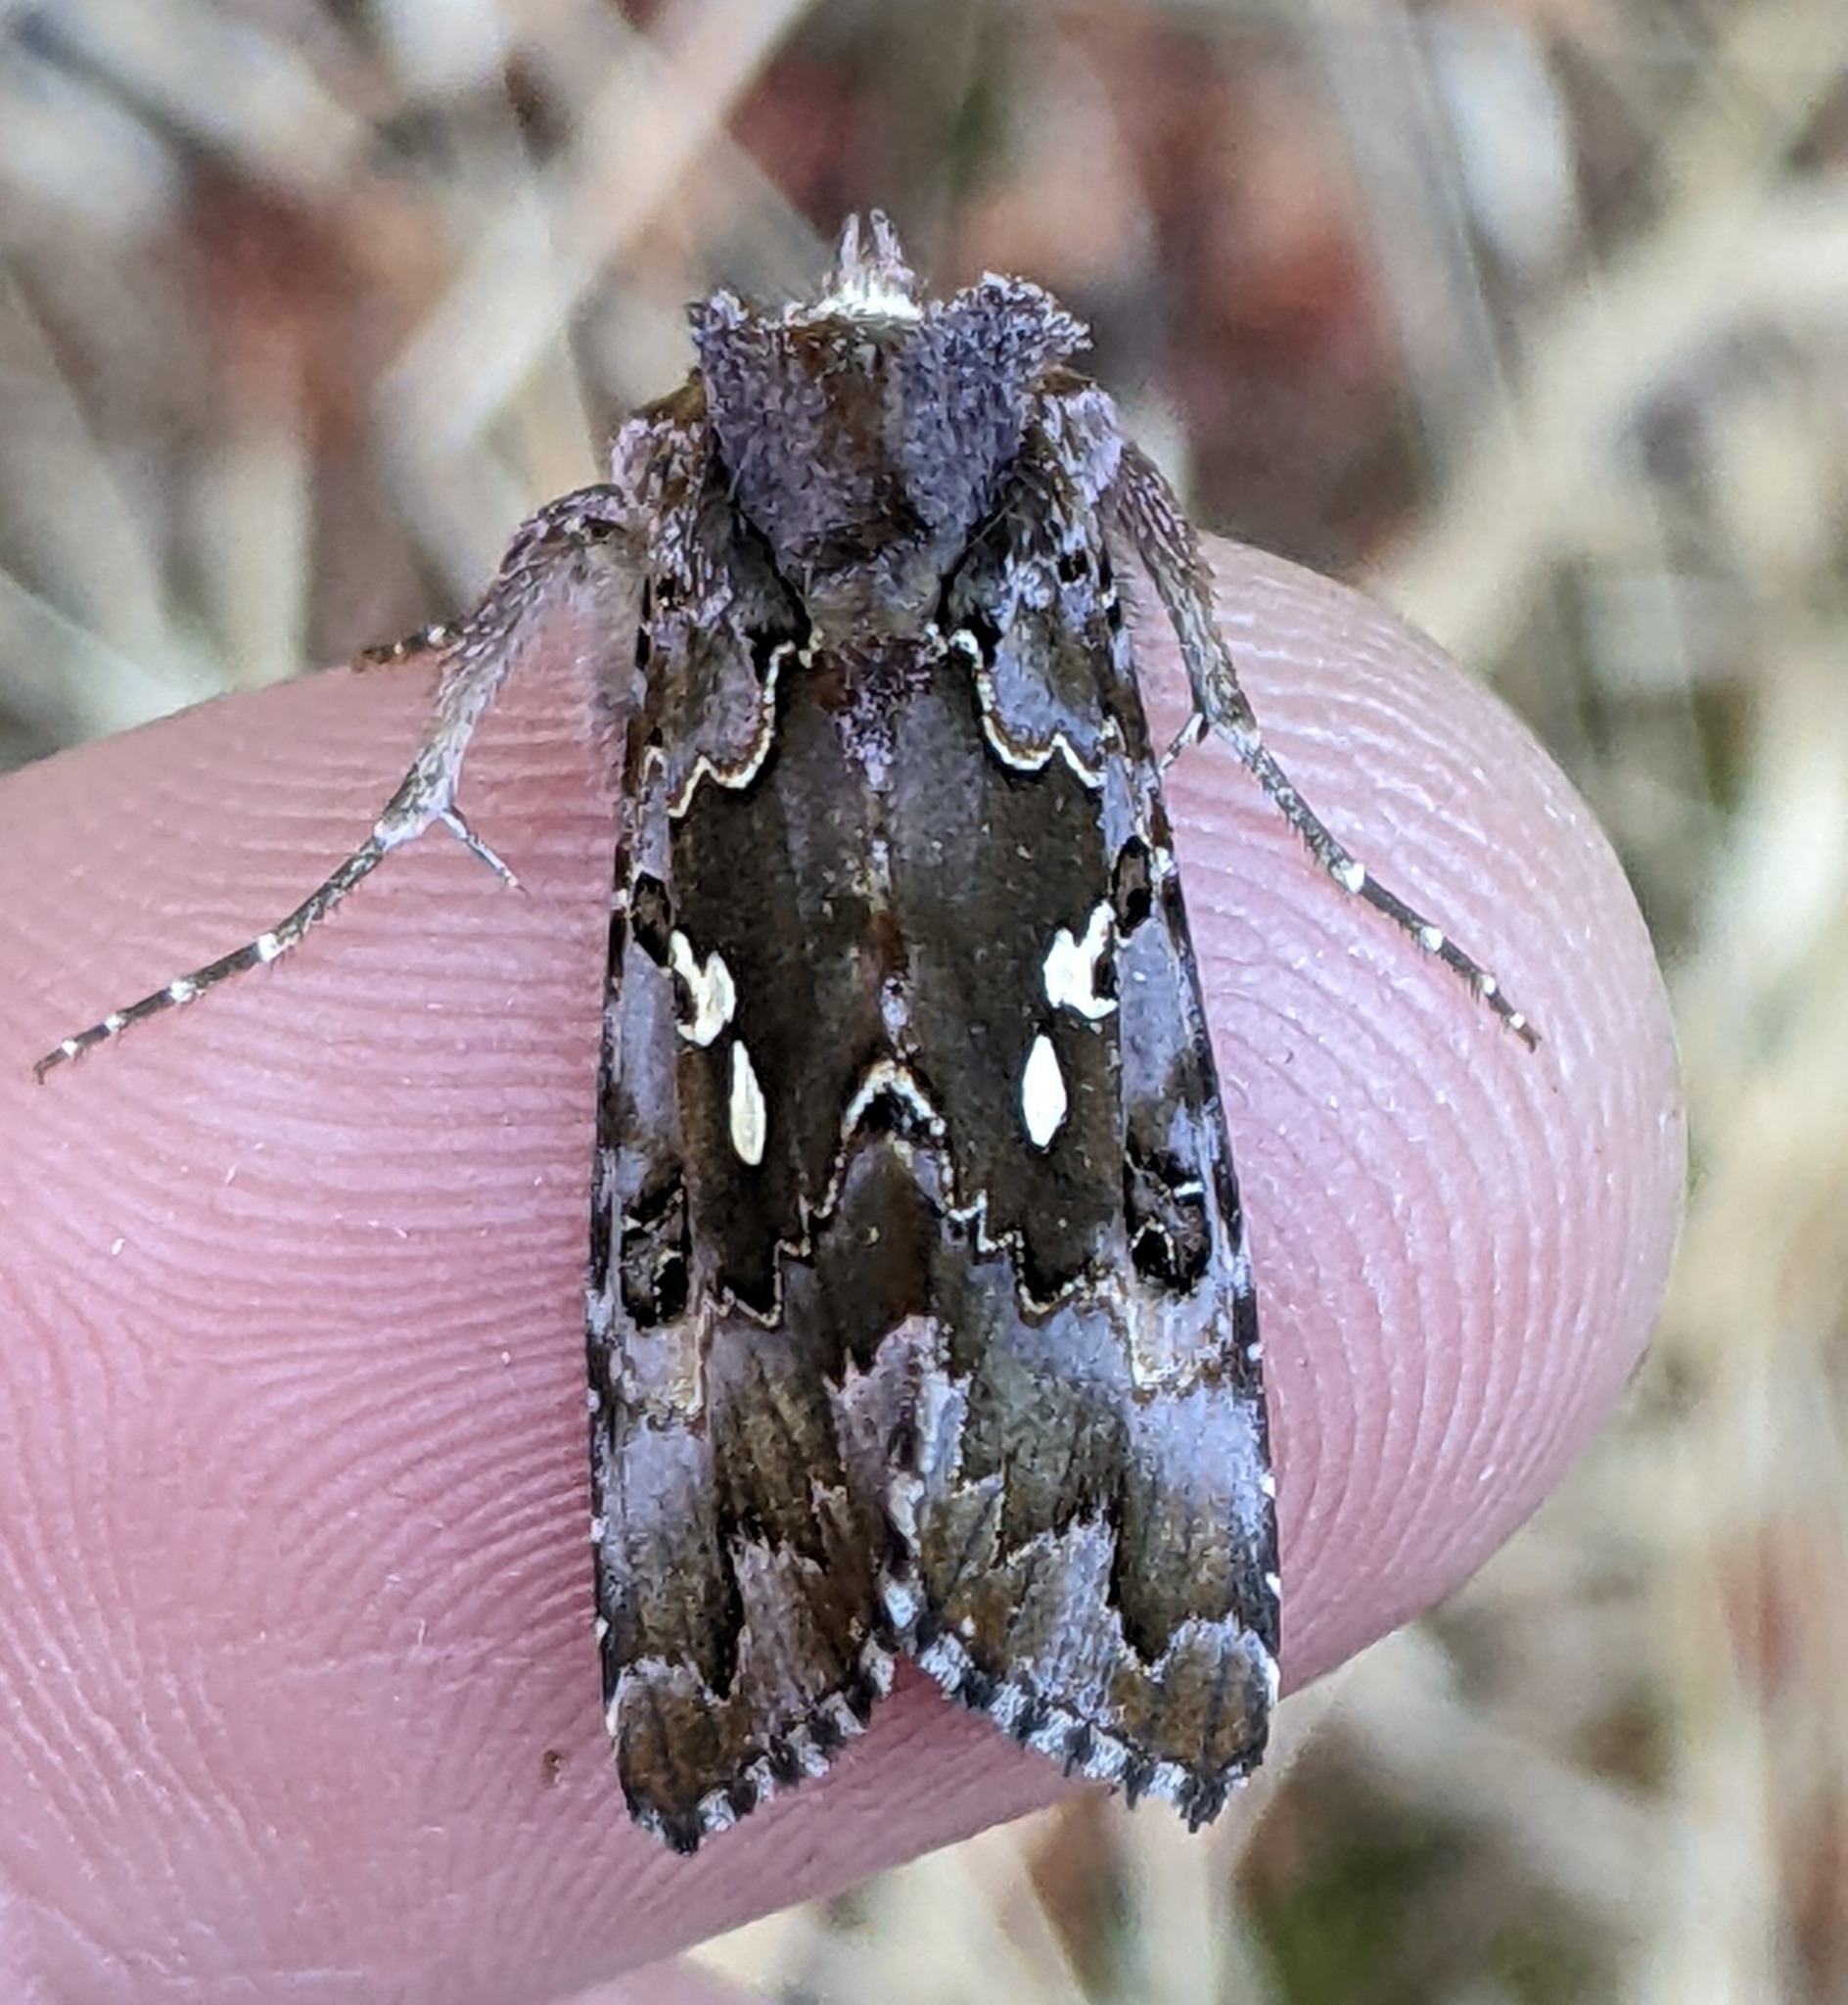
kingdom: Animalia
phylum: Arthropoda
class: Insecta
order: Lepidoptera
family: Noctuidae
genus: Autographa
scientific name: Autographa corusca
